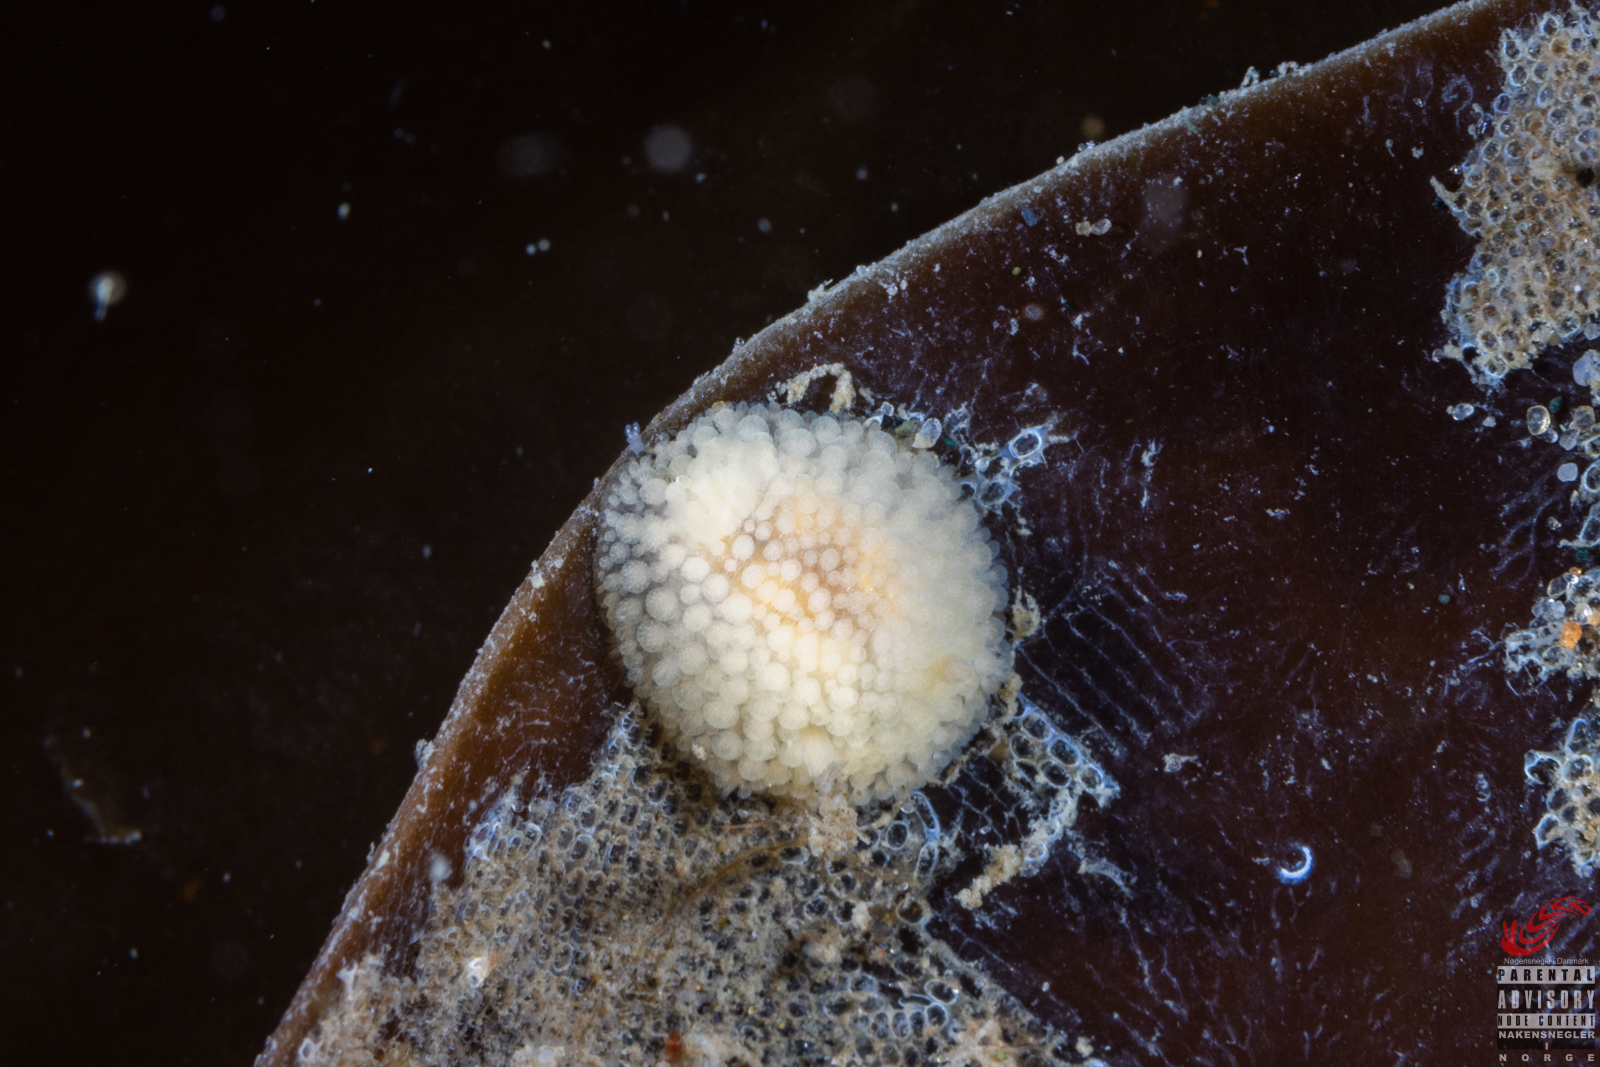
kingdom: Animalia
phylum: Mollusca
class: Gastropoda
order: Nudibranchia
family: Onchidorididae
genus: Onchidoris
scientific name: Onchidoris muricata
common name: Rough doris
